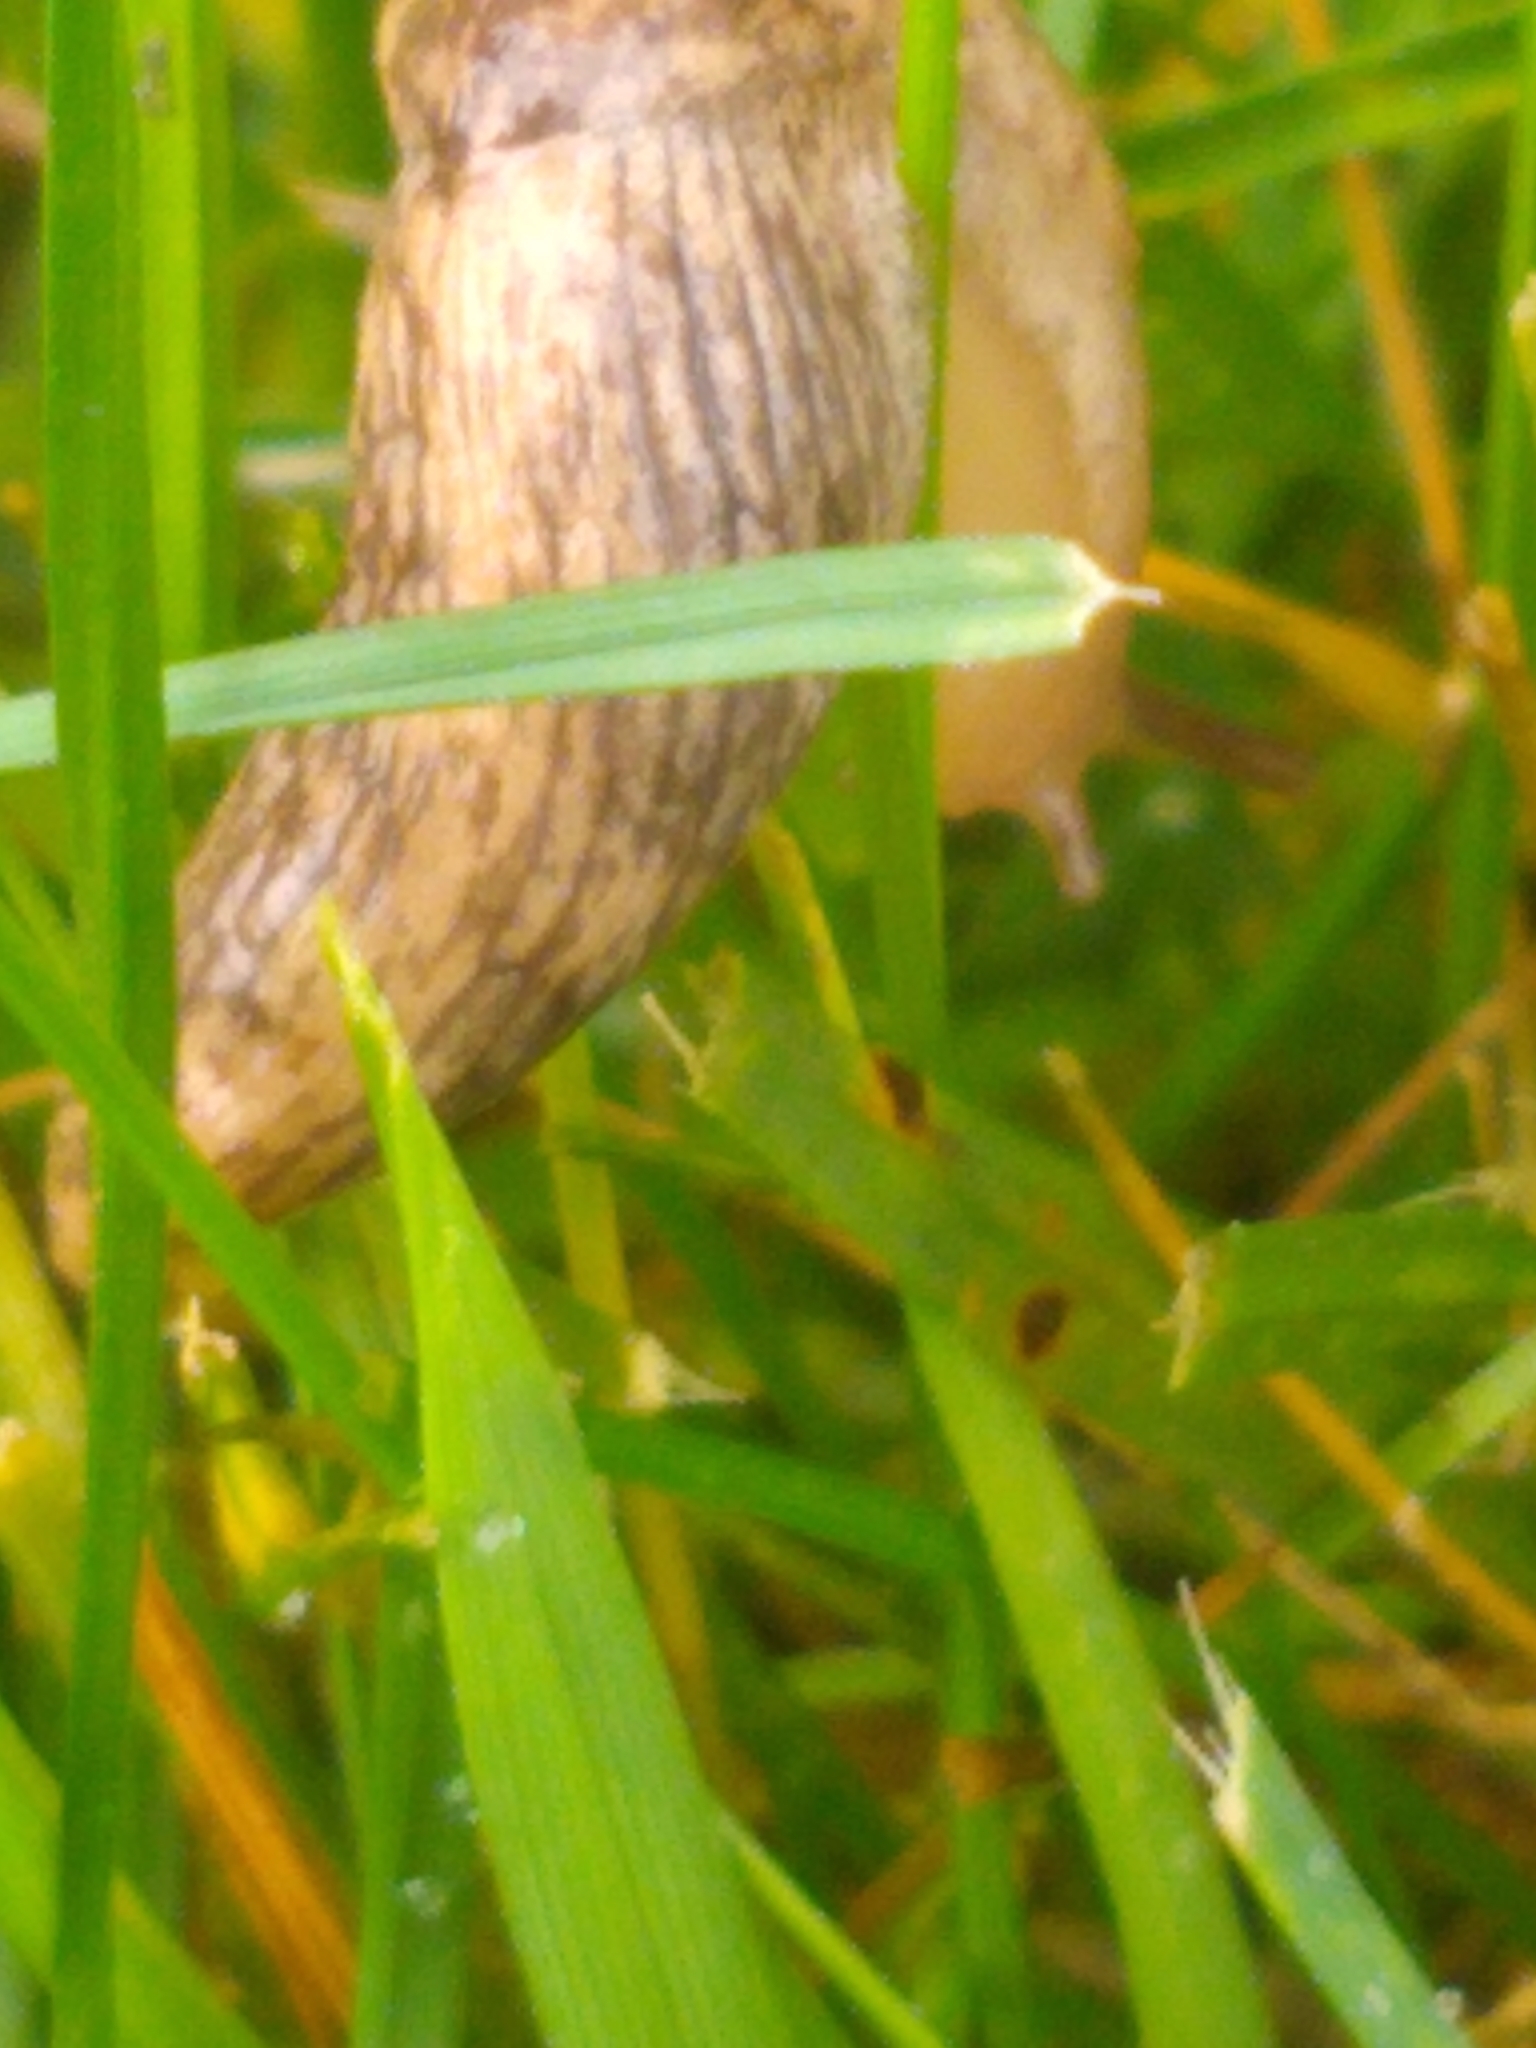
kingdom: Animalia
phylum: Mollusca
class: Gastropoda
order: Stylommatophora
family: Agriolimacidae
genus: Deroceras
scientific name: Deroceras reticulatum
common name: Gray field slug
